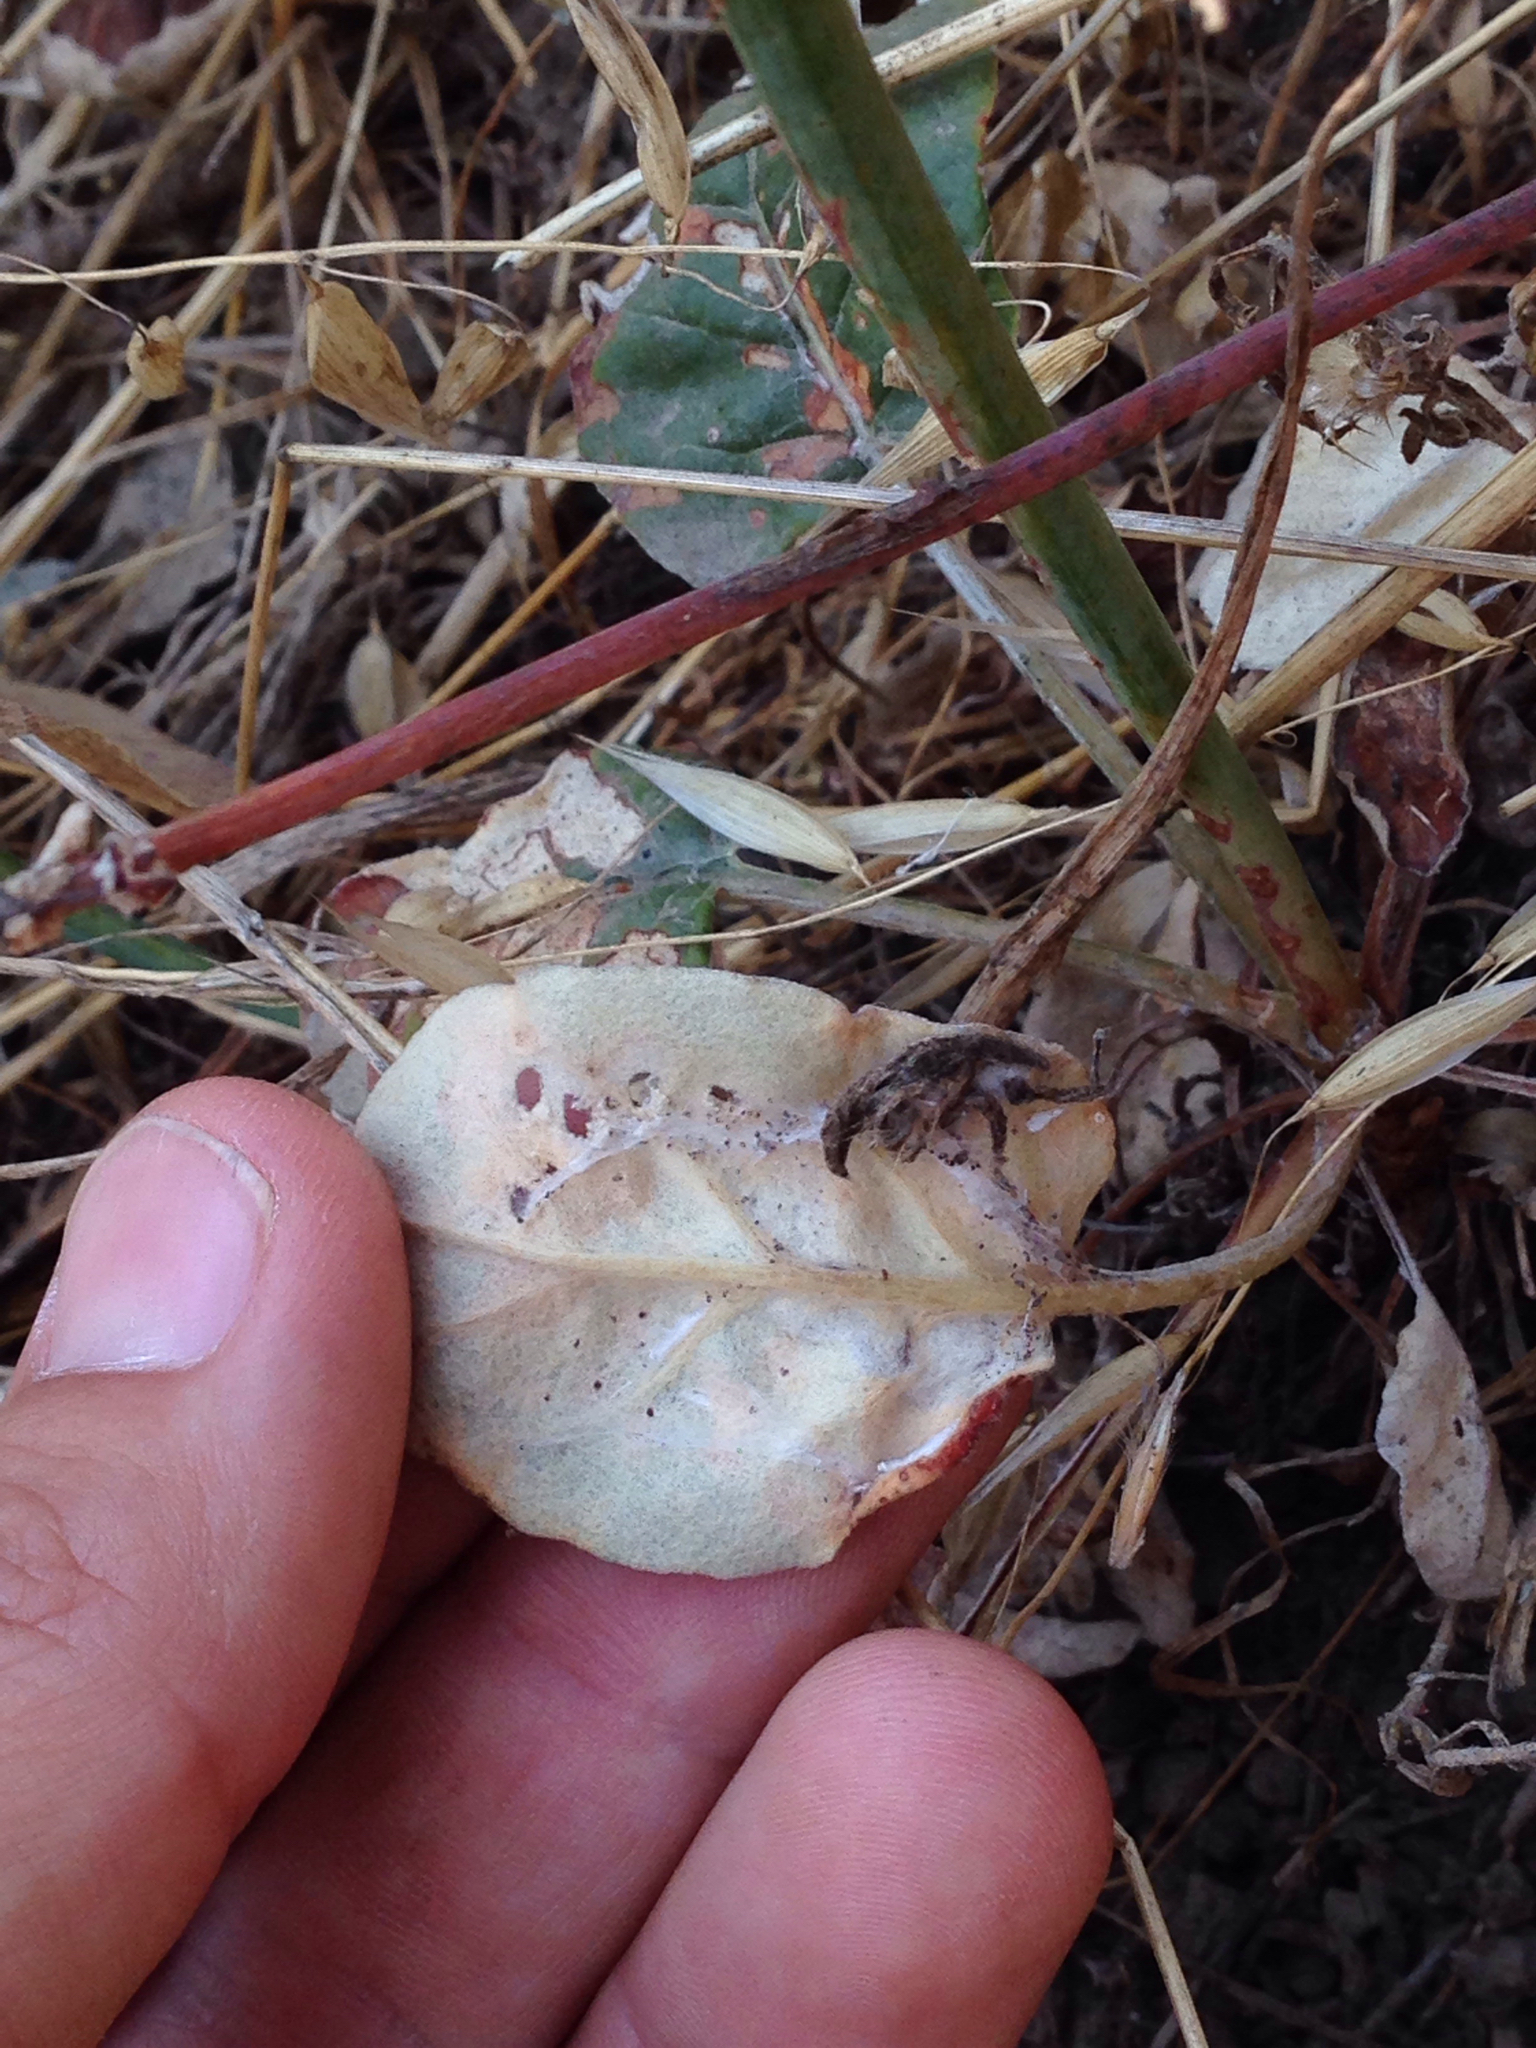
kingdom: Plantae
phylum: Tracheophyta
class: Magnoliopsida
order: Caryophyllales
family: Polygonaceae
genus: Eriogonum
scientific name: Eriogonum nudum
